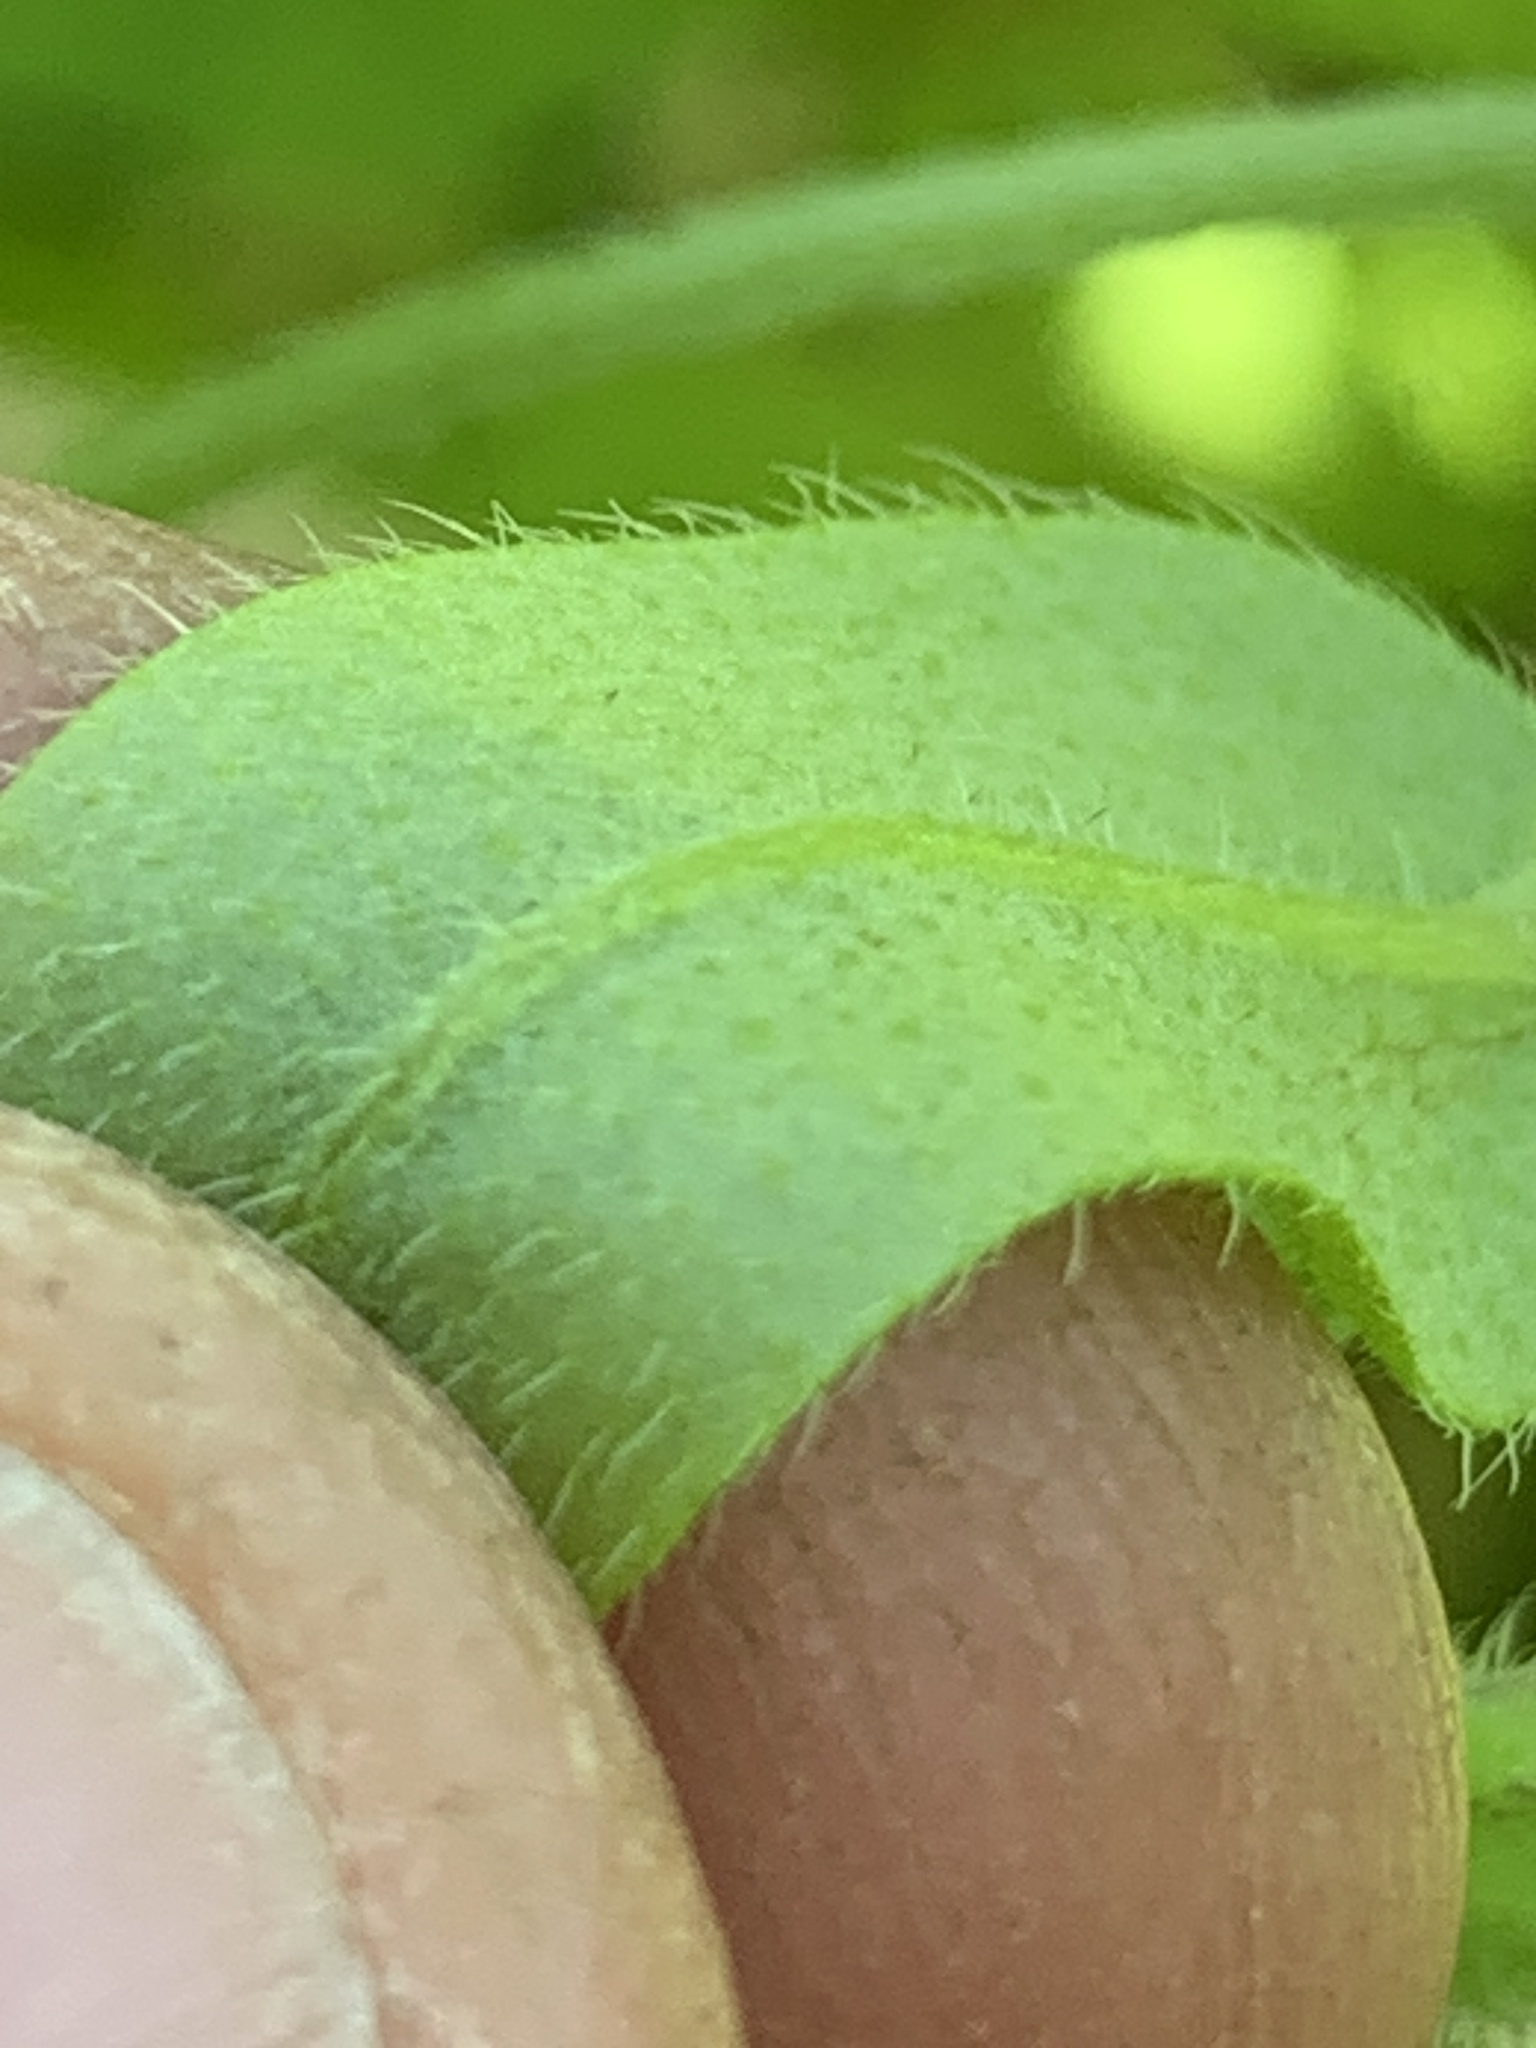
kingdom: Plantae
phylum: Tracheophyta
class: Magnoliopsida
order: Boraginales
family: Boraginaceae
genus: Myosotis
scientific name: Myosotis macrosperma
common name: Large-seed forget-me-not
